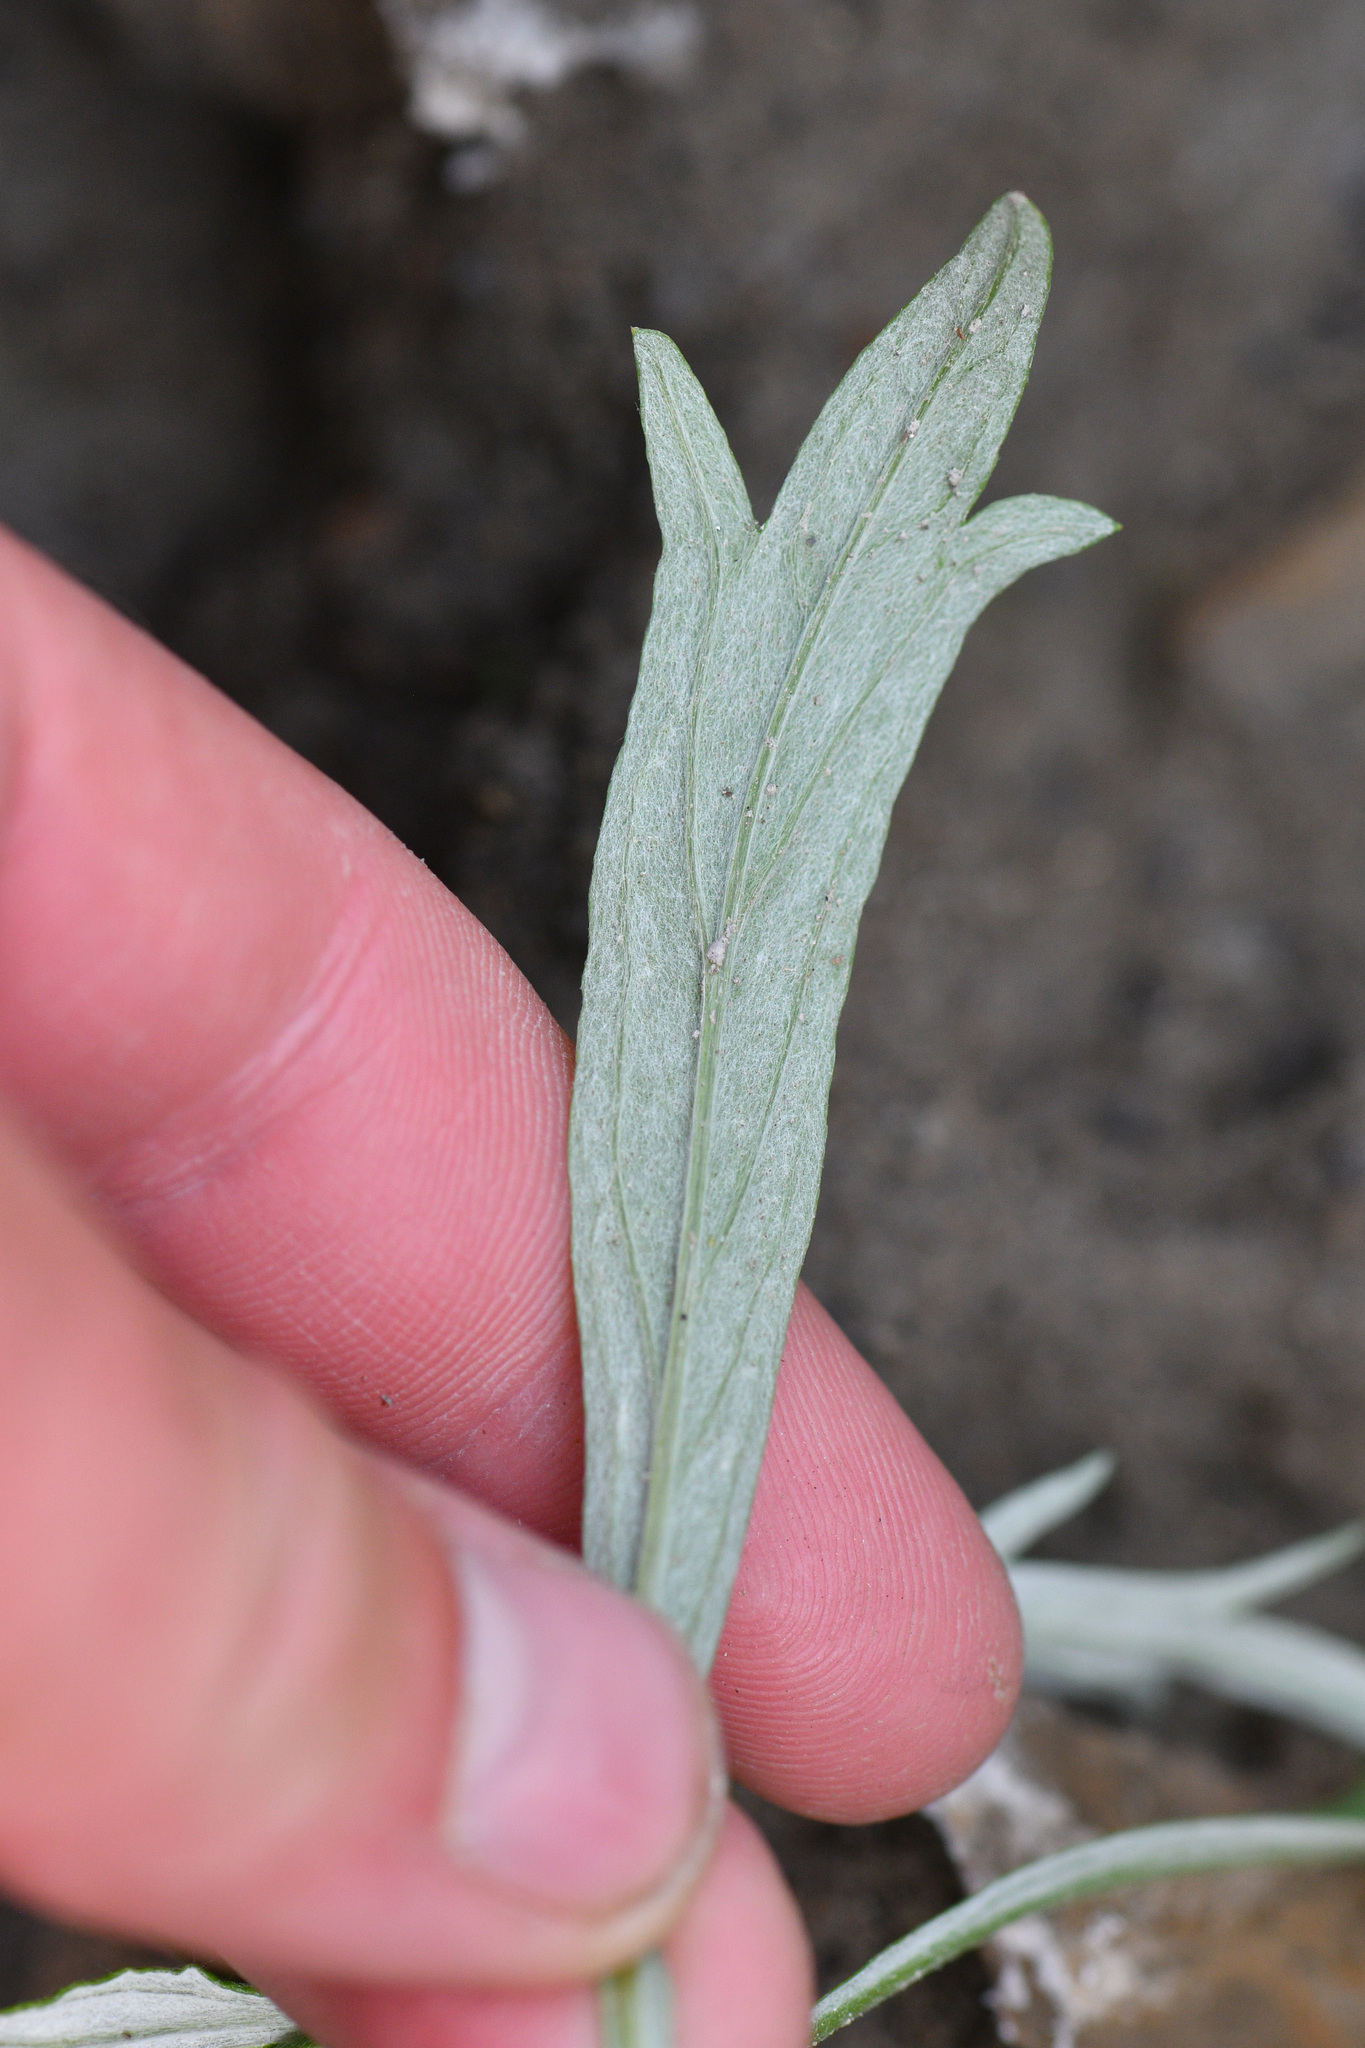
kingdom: Plantae
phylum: Tracheophyta
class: Magnoliopsida
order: Asterales
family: Asteraceae
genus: Artemisia
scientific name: Artemisia longifolia
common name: Long-leaved mugwort
